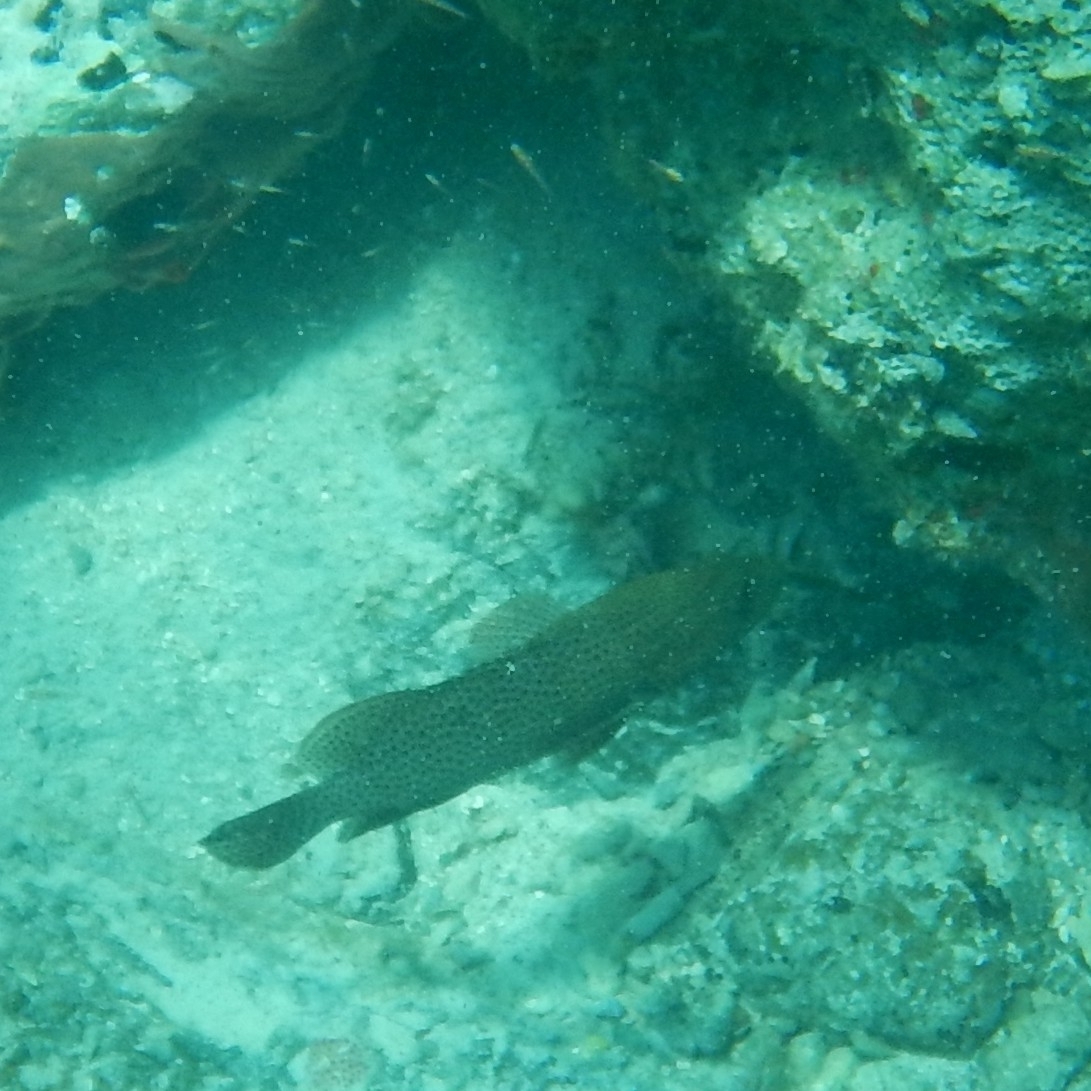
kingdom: Animalia
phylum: Chordata
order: Perciformes
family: Serranidae
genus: Cephalopholis
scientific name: Cephalopholis cruentata
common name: Graysby
